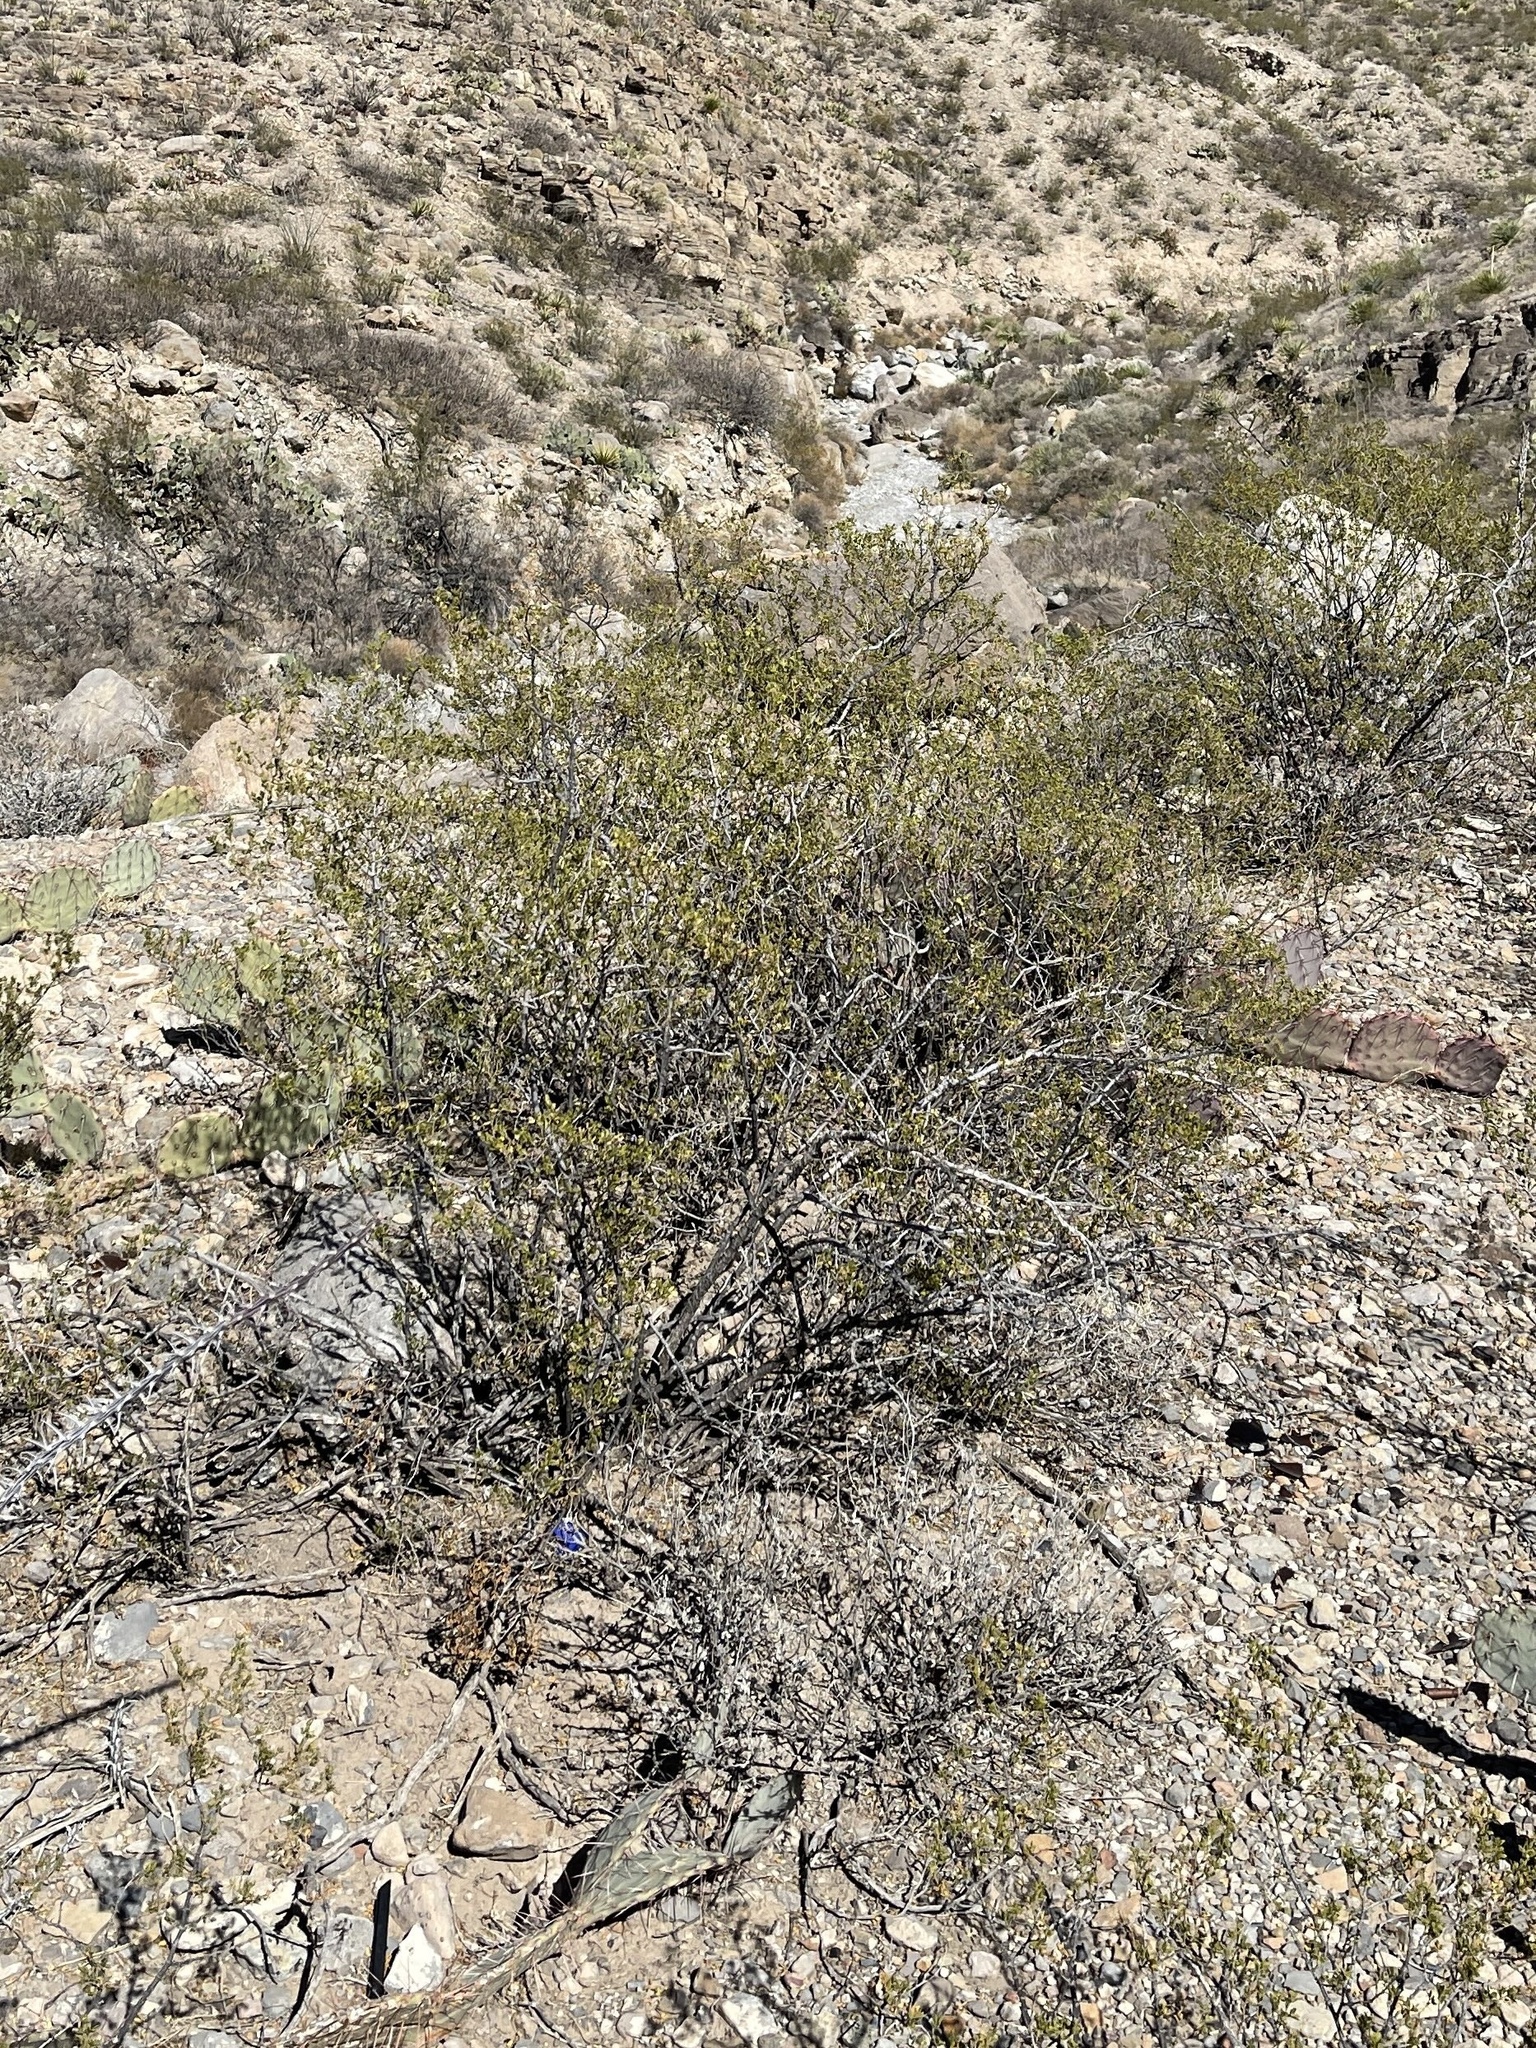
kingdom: Plantae
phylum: Tracheophyta
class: Magnoliopsida
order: Zygophyllales
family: Zygophyllaceae
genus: Larrea
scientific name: Larrea tridentata
